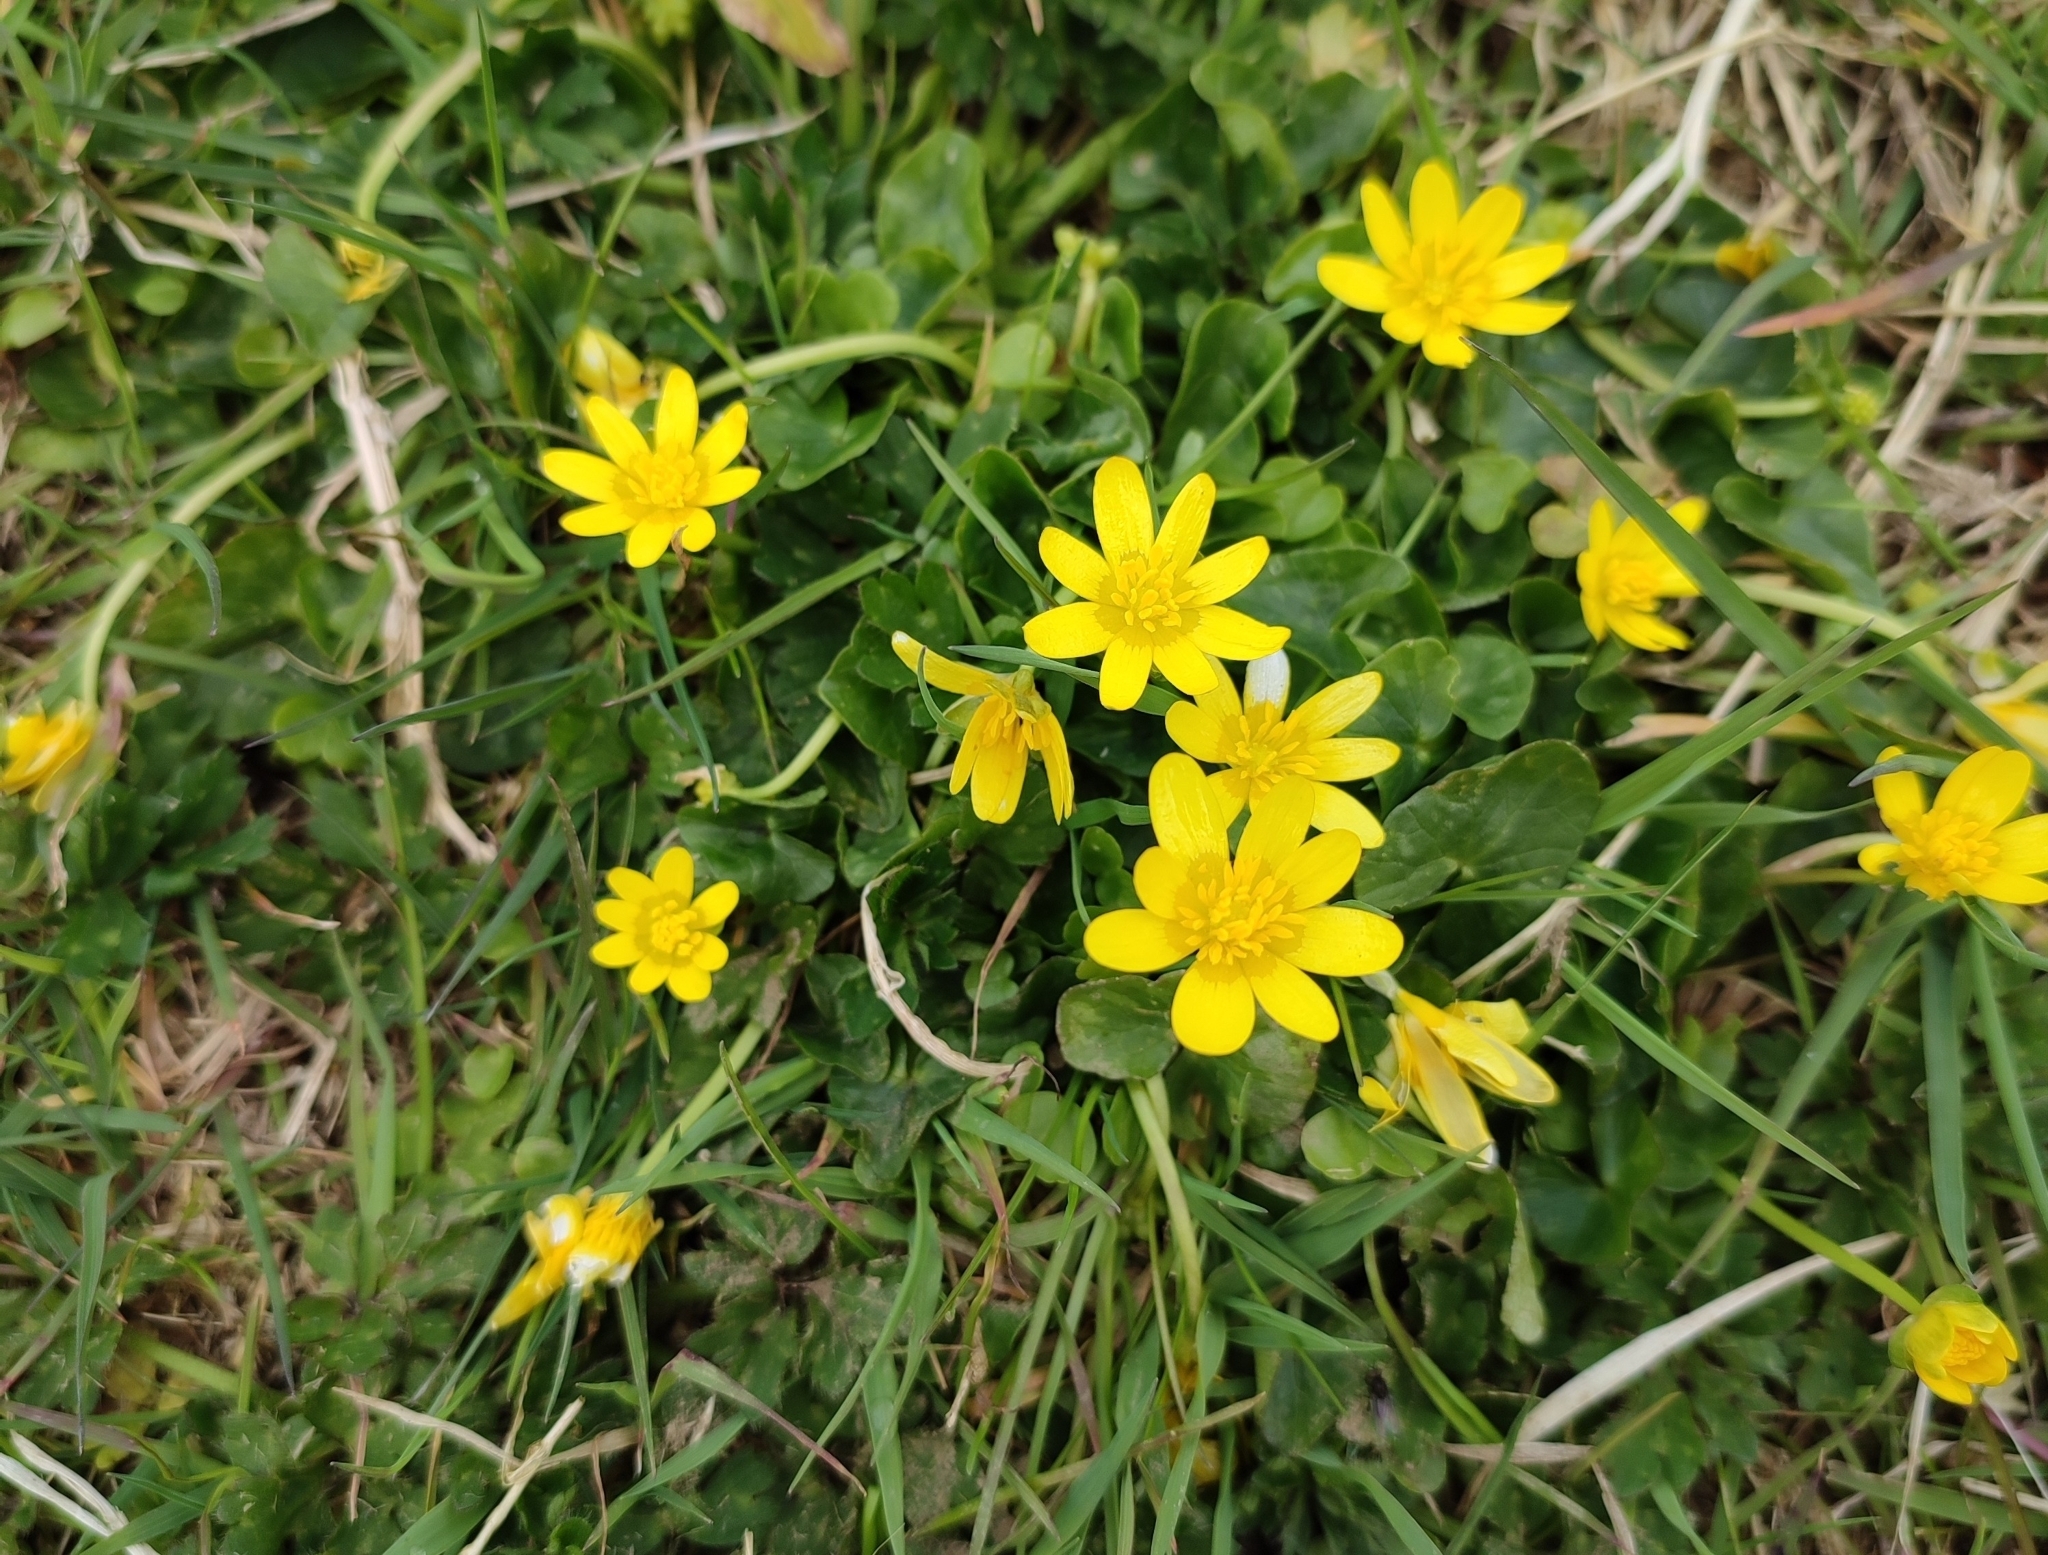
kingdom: Plantae
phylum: Tracheophyta
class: Magnoliopsida
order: Ranunculales
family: Ranunculaceae
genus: Ficaria
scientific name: Ficaria verna
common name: Lesser celandine
